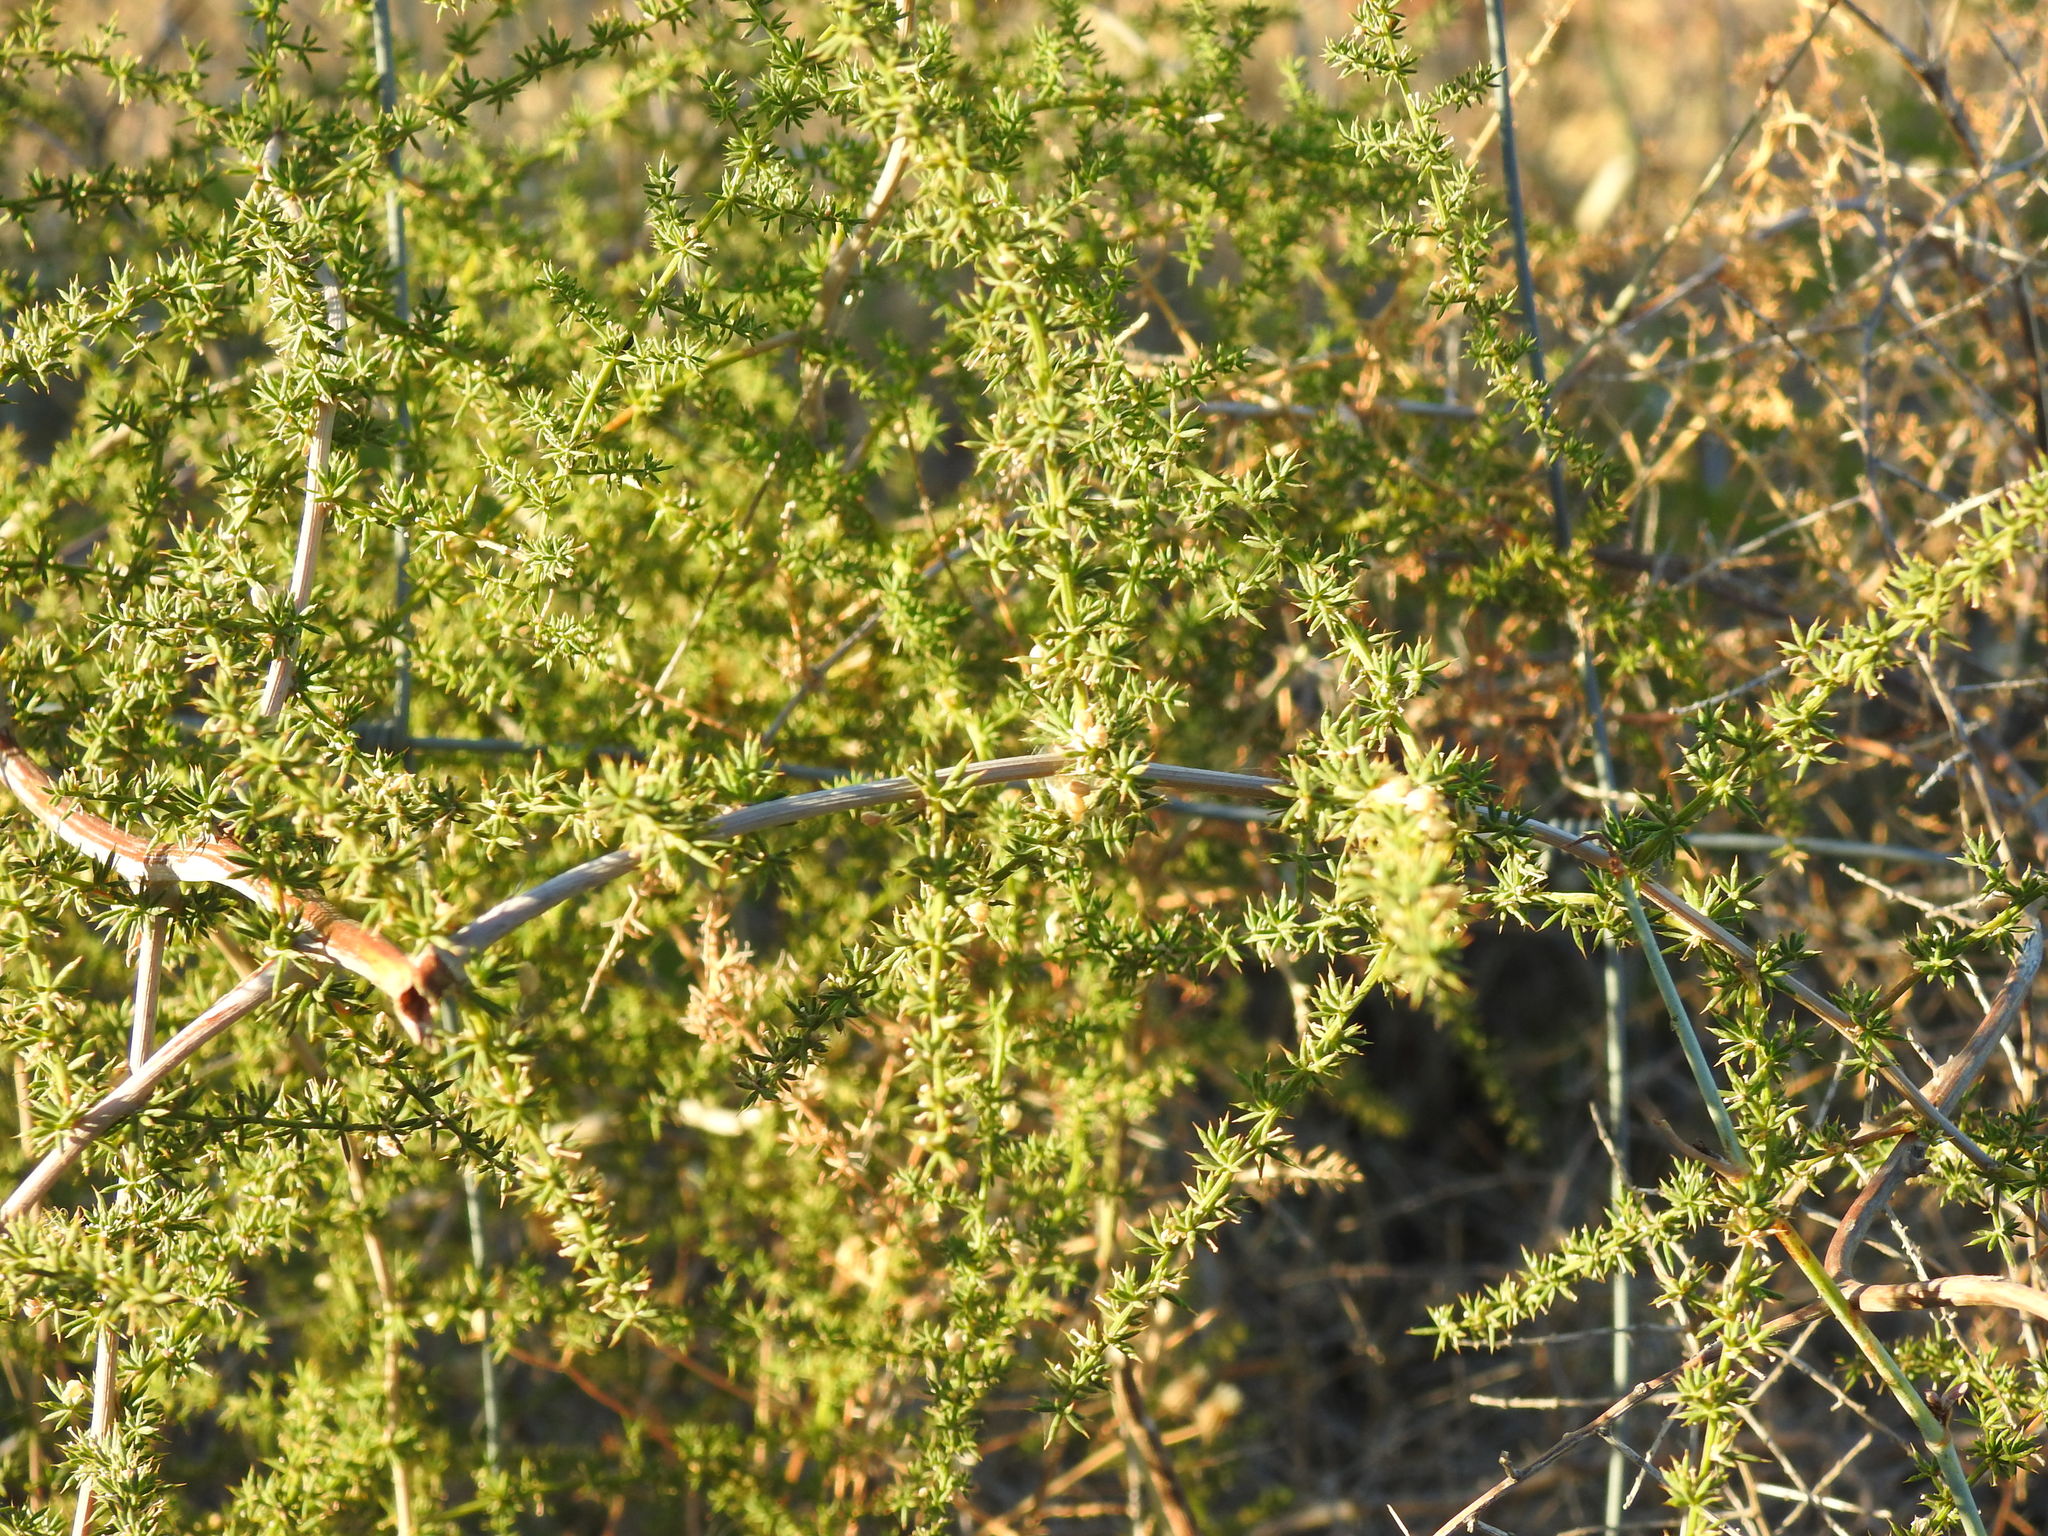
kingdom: Plantae
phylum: Tracheophyta
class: Liliopsida
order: Asparagales
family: Asparagaceae
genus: Asparagus
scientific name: Asparagus acutifolius
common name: Wild asparagus
